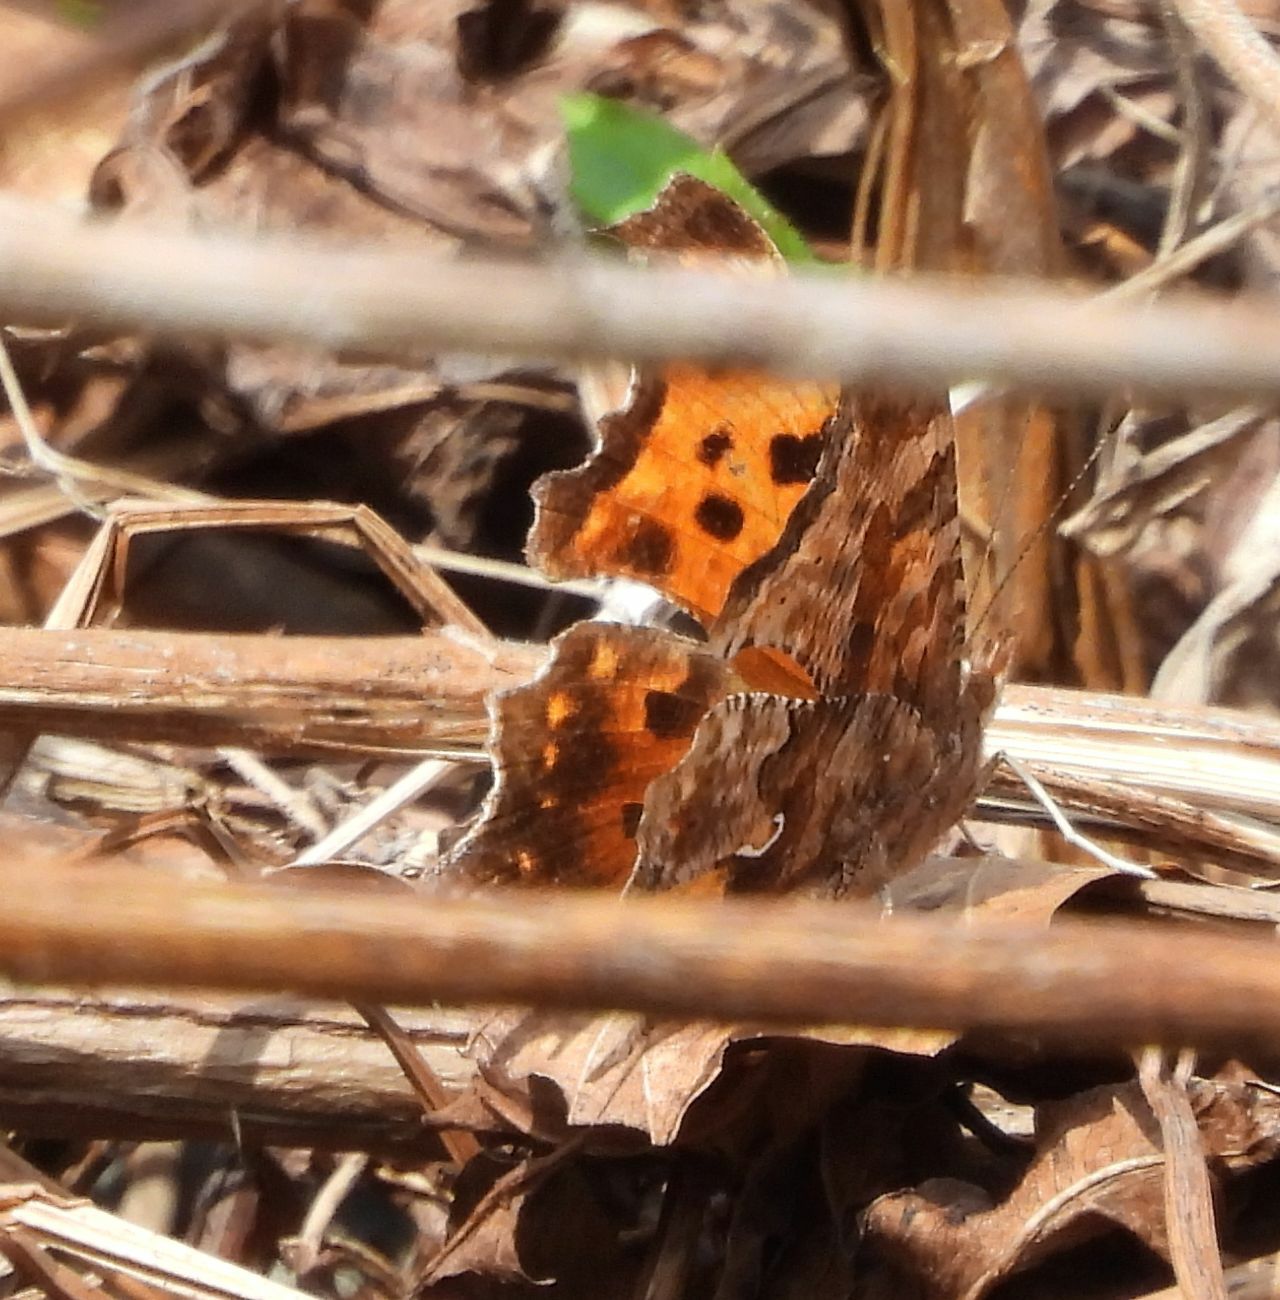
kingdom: Animalia
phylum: Arthropoda
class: Insecta
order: Lepidoptera
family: Nymphalidae
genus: Polygonia
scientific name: Polygonia comma
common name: Eastern comma
